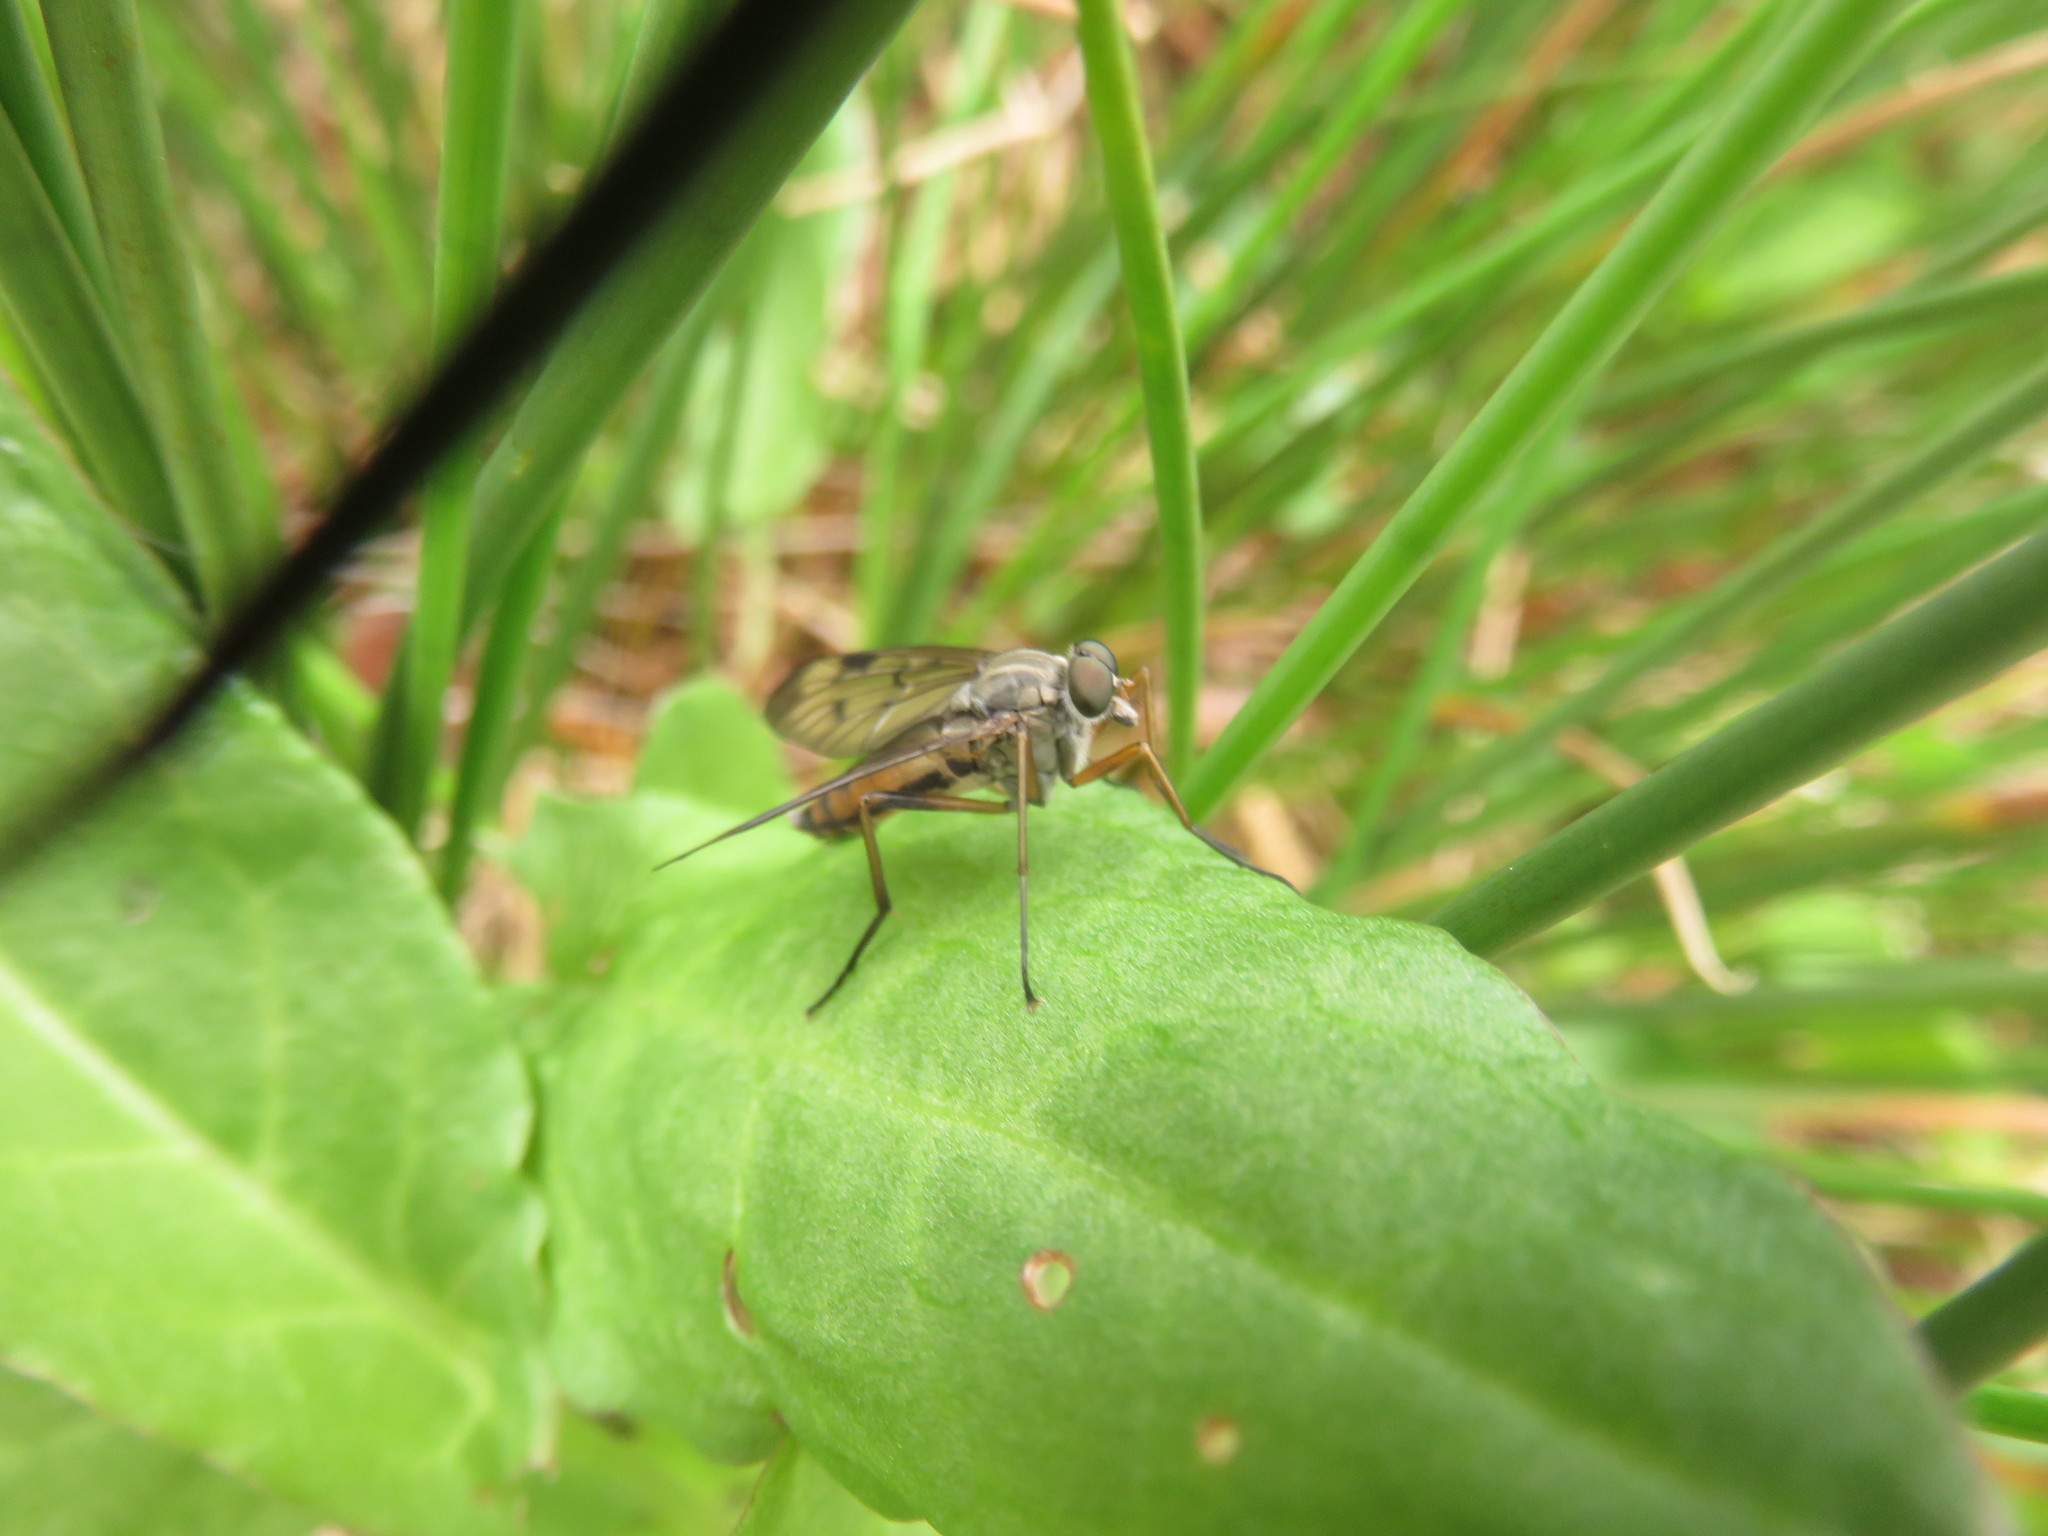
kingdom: Animalia
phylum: Arthropoda
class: Insecta
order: Diptera
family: Rhagionidae
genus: Rhagio
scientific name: Rhagio scolopacea
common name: Downlooker snipefly
